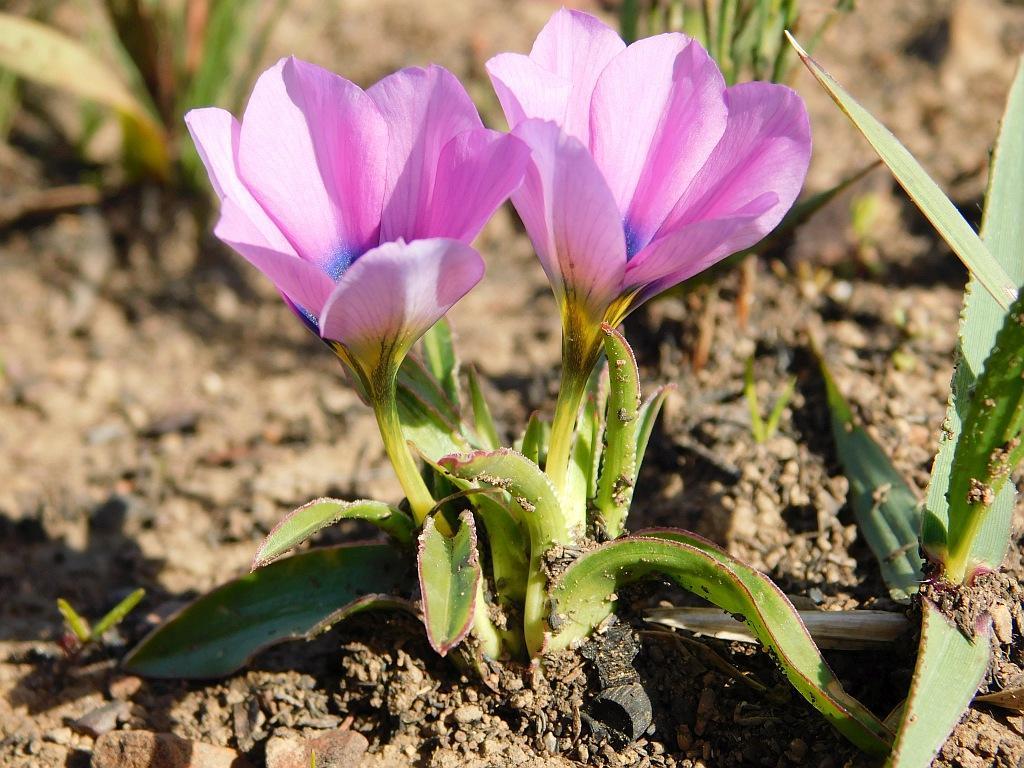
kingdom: Plantae
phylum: Tracheophyta
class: Liliopsida
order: Asparagales
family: Iridaceae
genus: Moraea
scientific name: Moraea barnardiella
